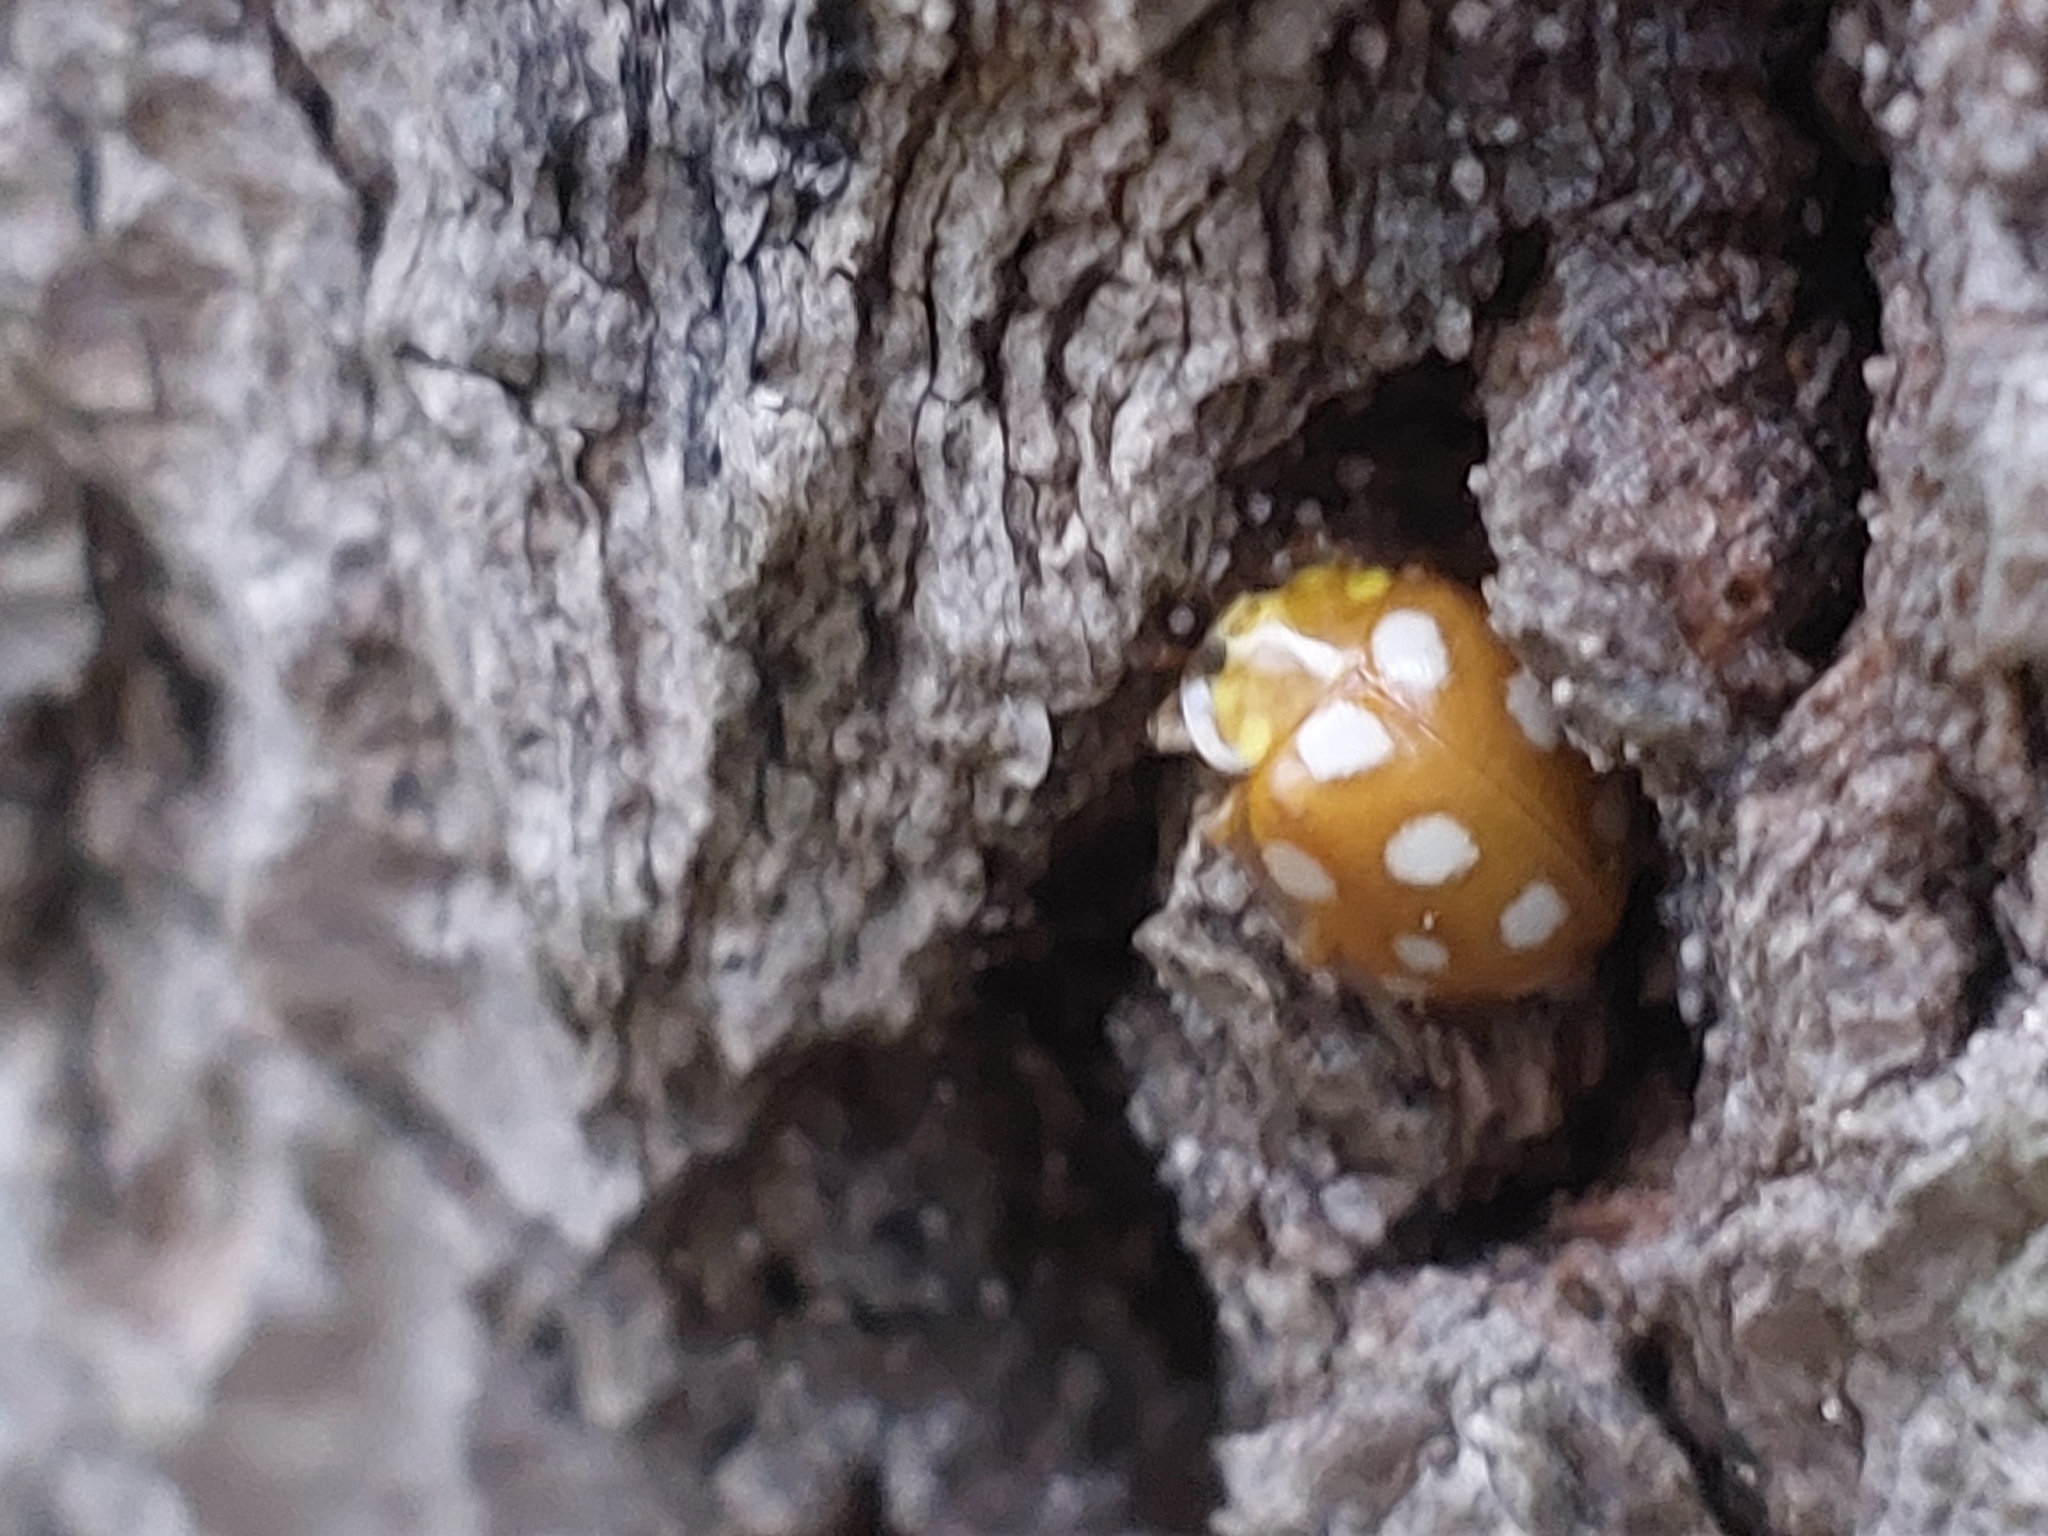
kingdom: Animalia
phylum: Arthropoda
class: Insecta
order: Coleoptera
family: Coccinellidae
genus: Halyzia
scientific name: Halyzia sedecimguttata
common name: Orange ladybird
